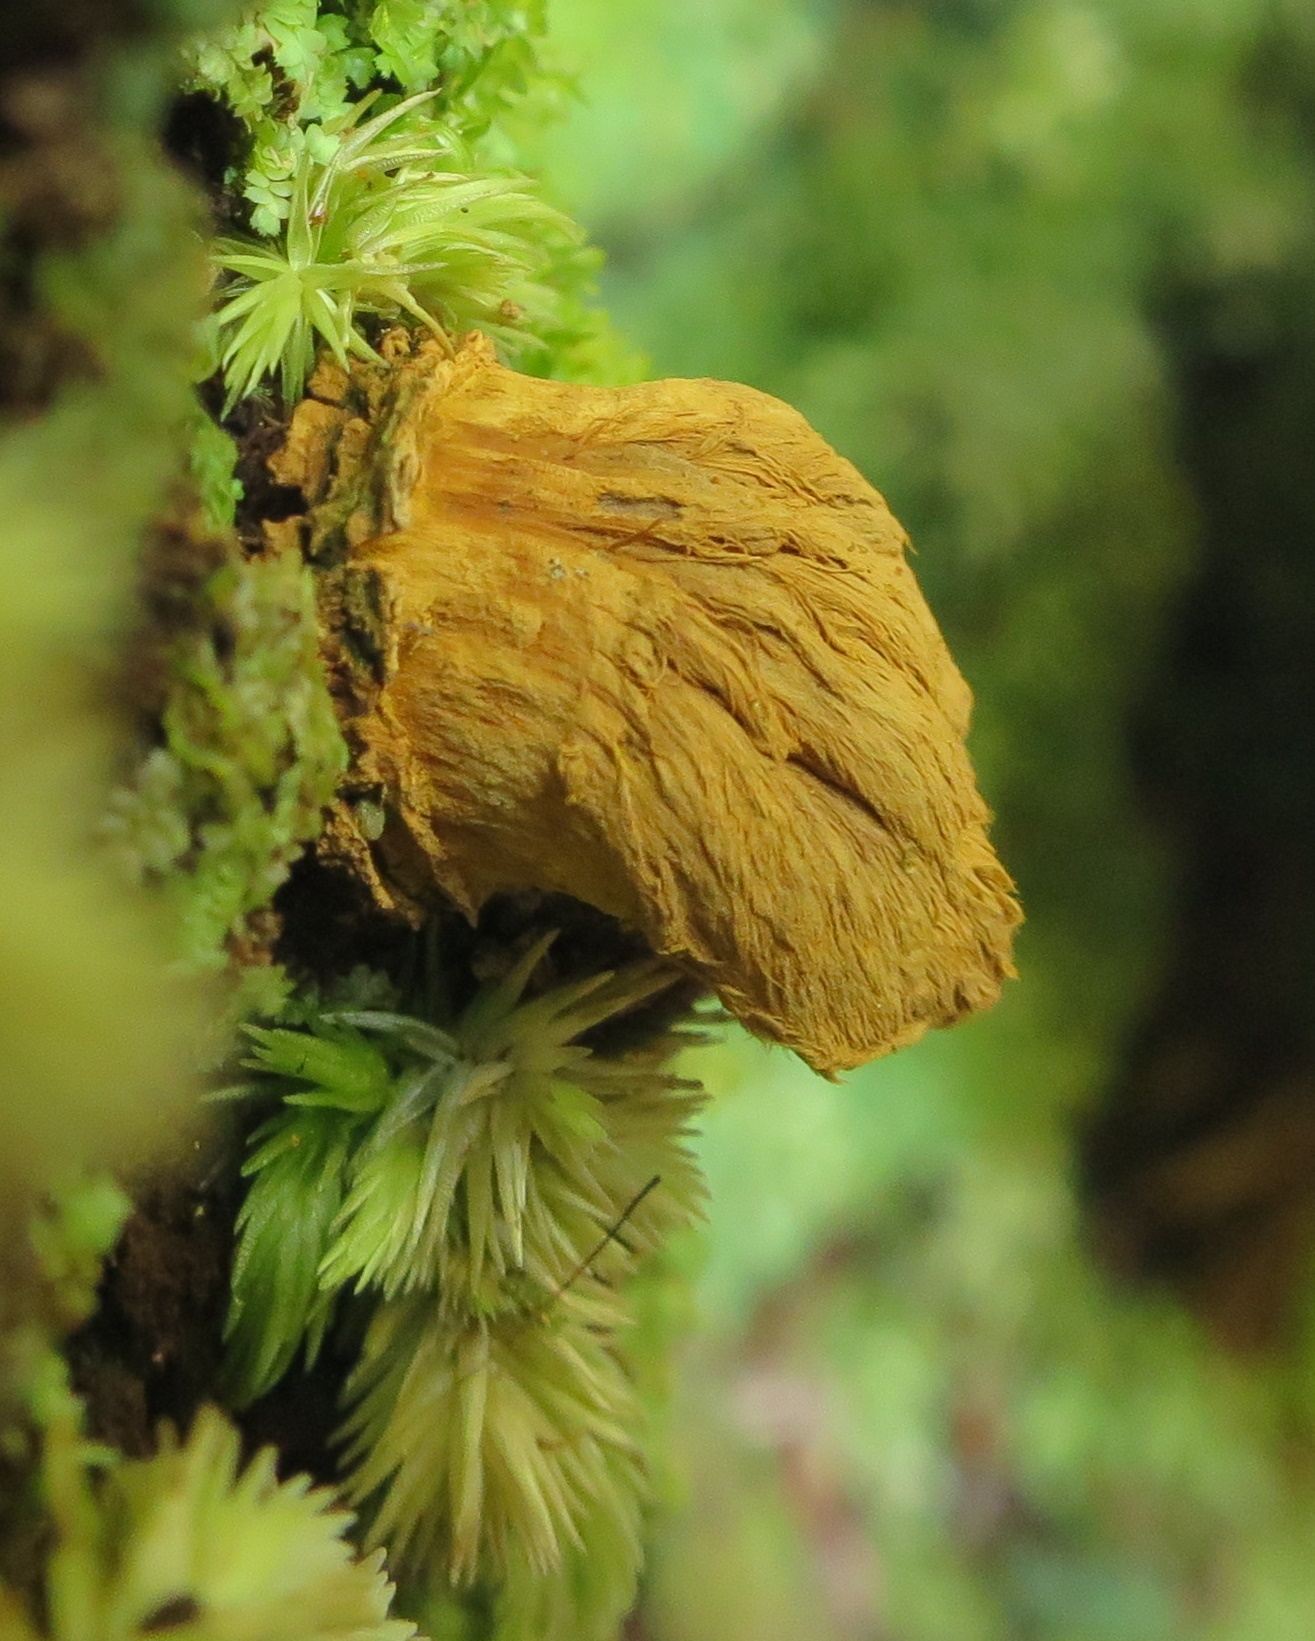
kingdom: Fungi
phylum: Ascomycota
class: Eurotiomycetes
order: Eurotiales
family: Trichocomaceae
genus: Trichocoma
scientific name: Trichocoma paradoxa
